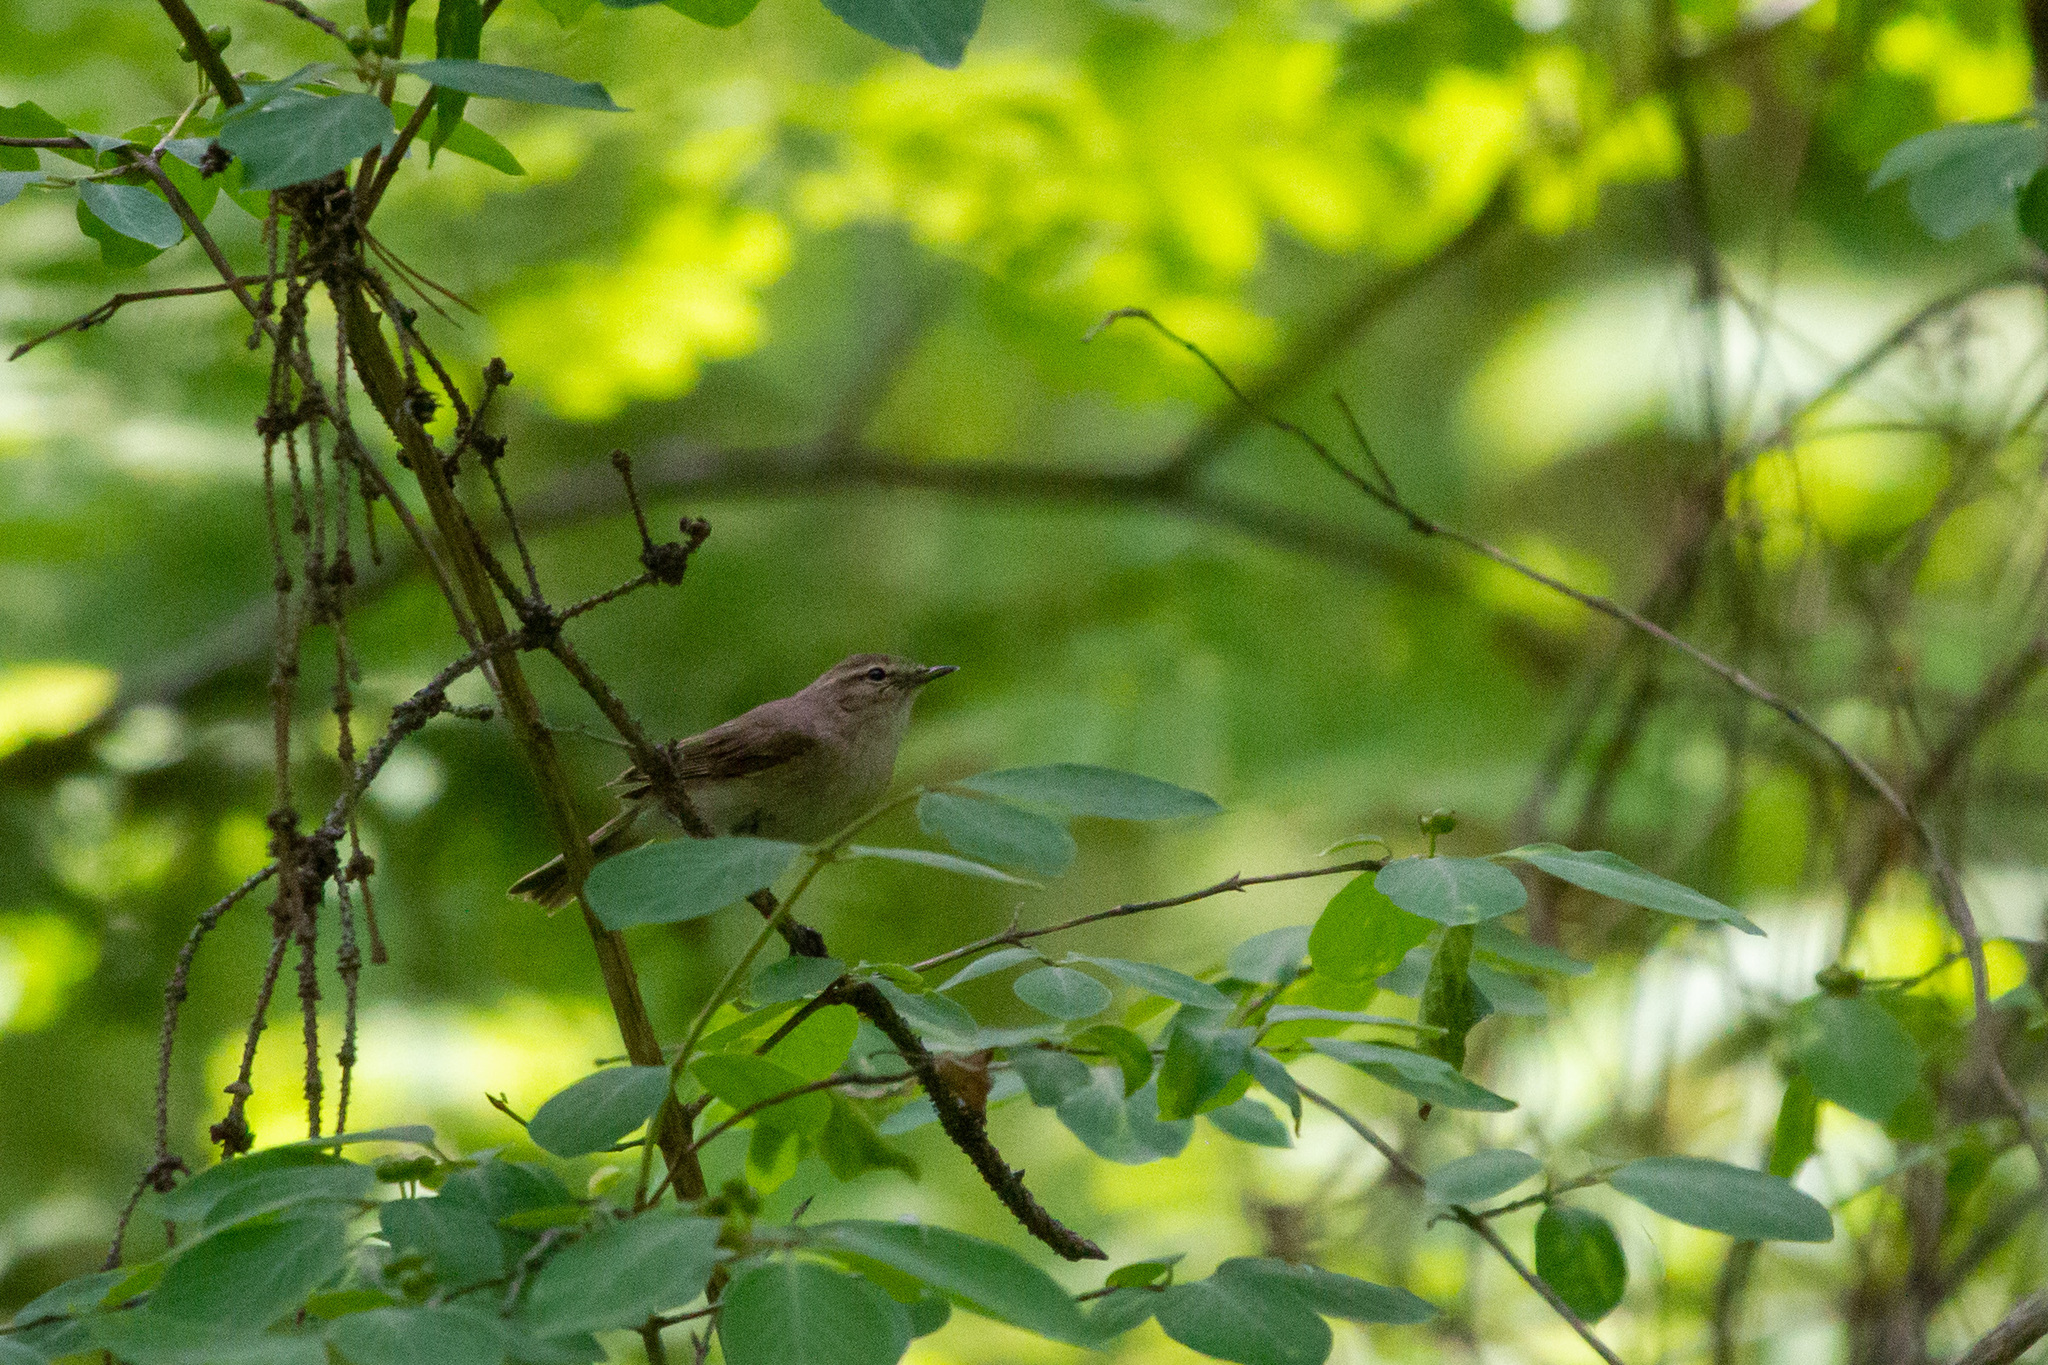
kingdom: Animalia
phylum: Chordata
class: Aves
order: Passeriformes
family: Phylloscopidae
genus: Phylloscopus
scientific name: Phylloscopus collybita
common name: Common chiffchaff
